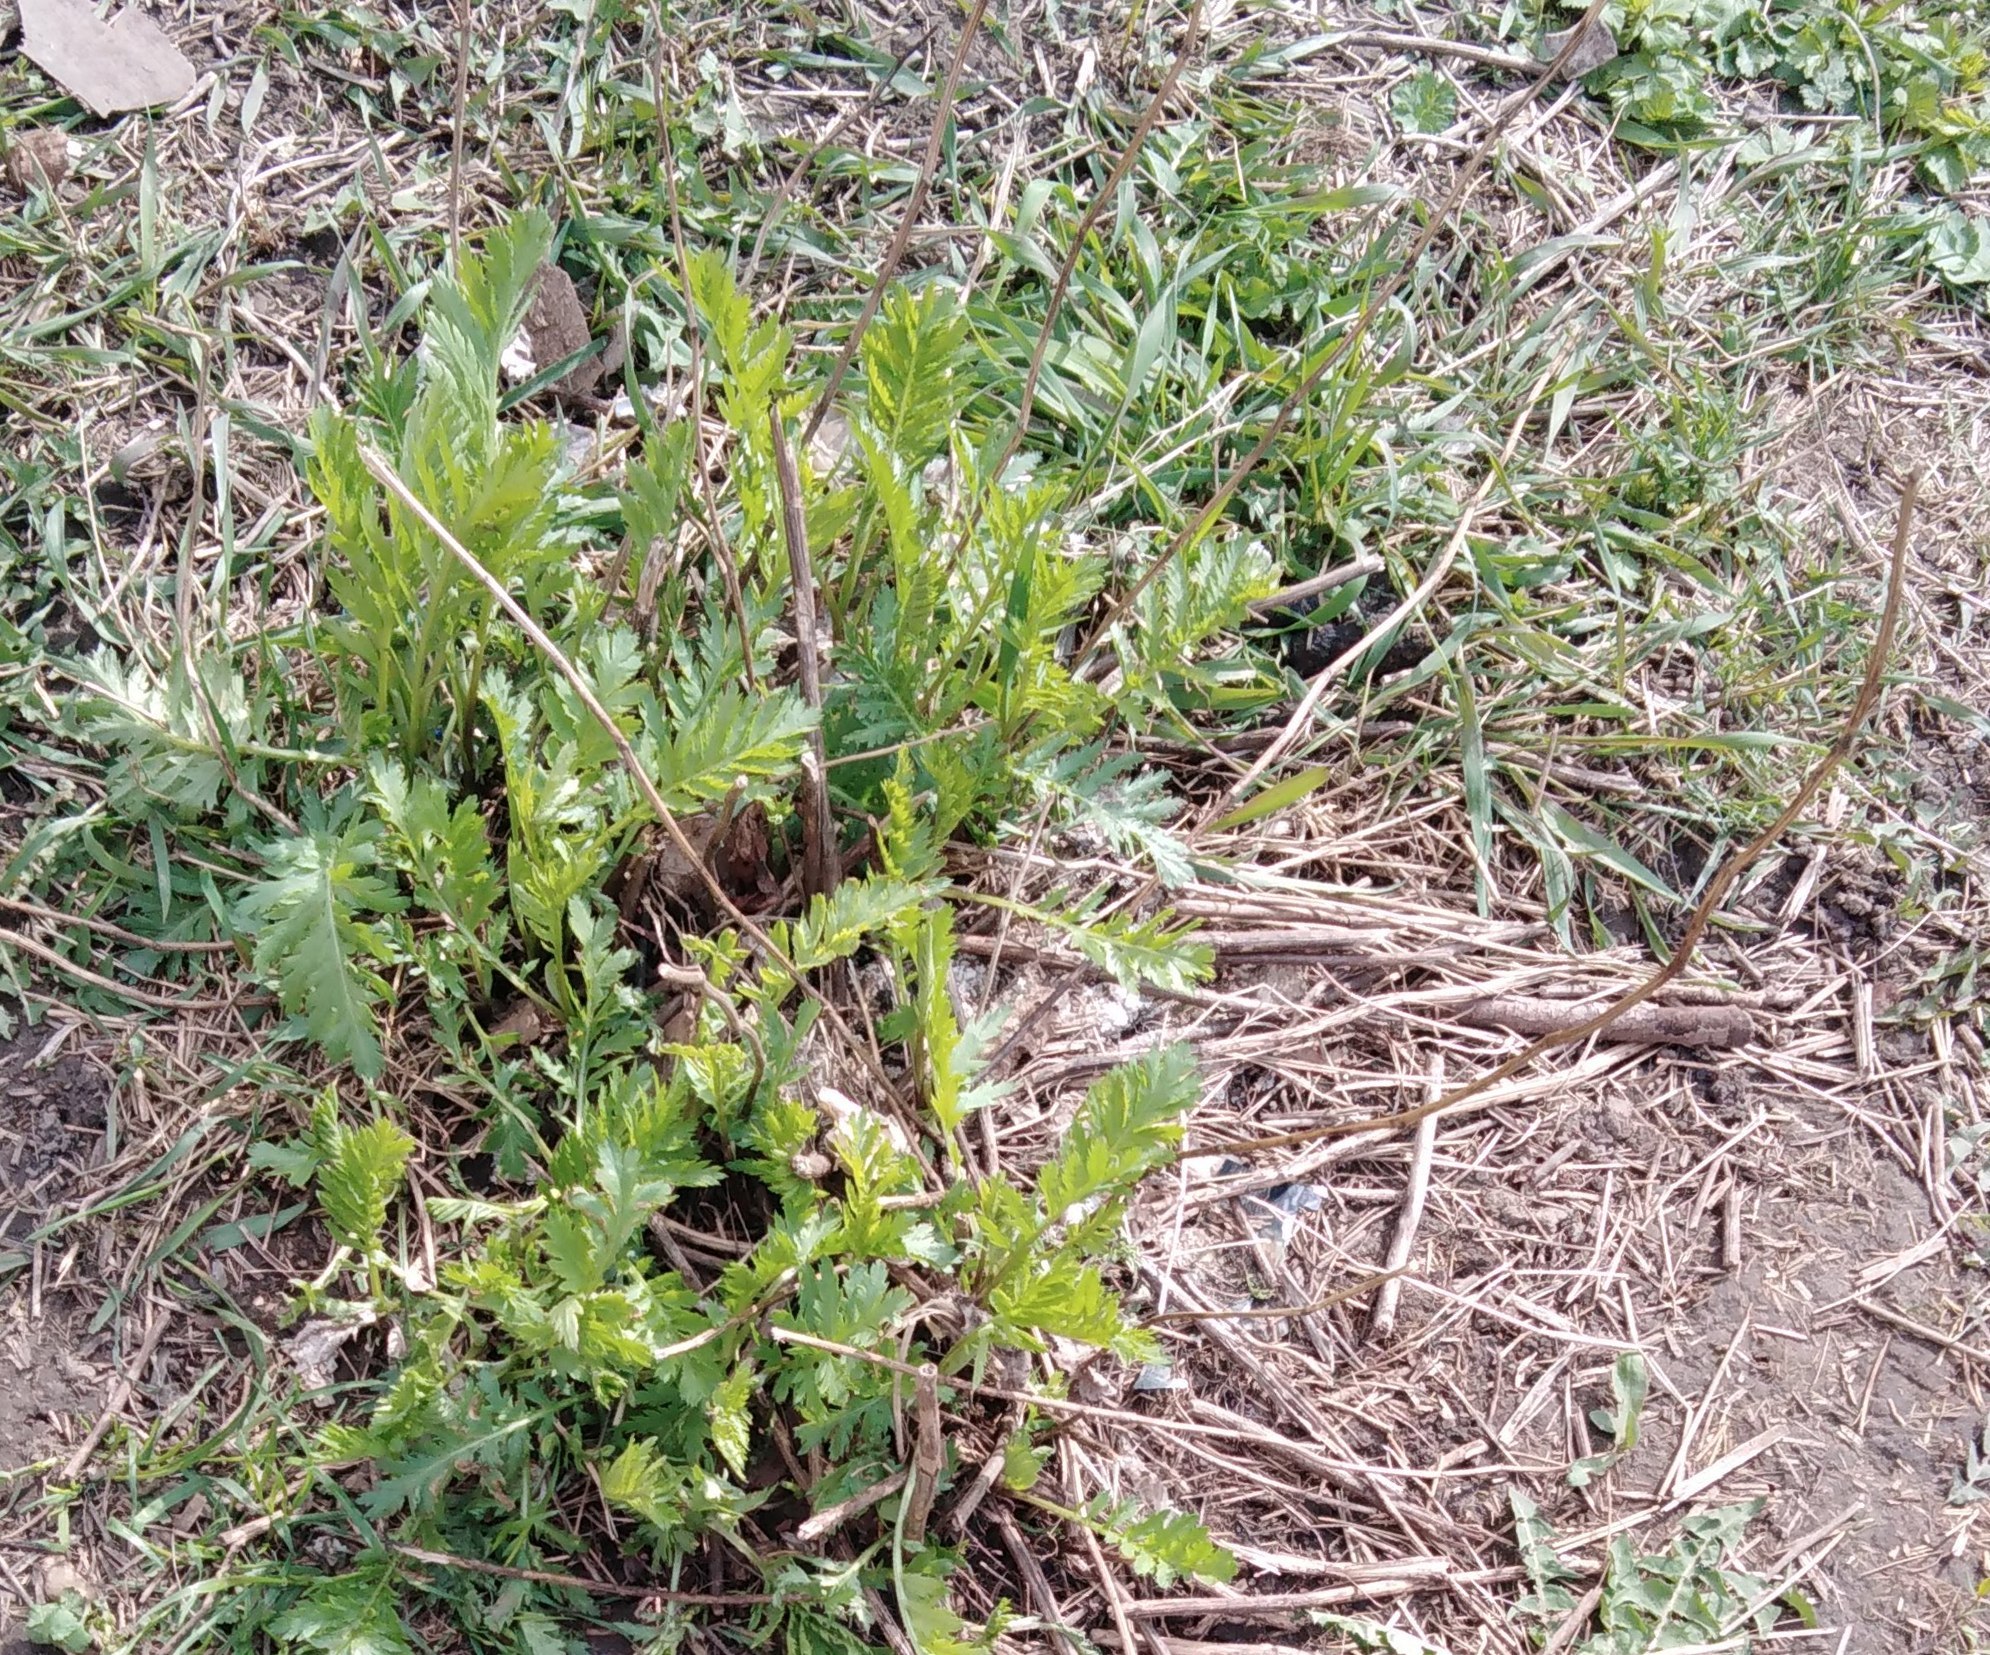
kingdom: Plantae
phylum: Tracheophyta
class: Magnoliopsida
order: Asterales
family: Asteraceae
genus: Tanacetum
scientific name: Tanacetum vulgare
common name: Common tansy
